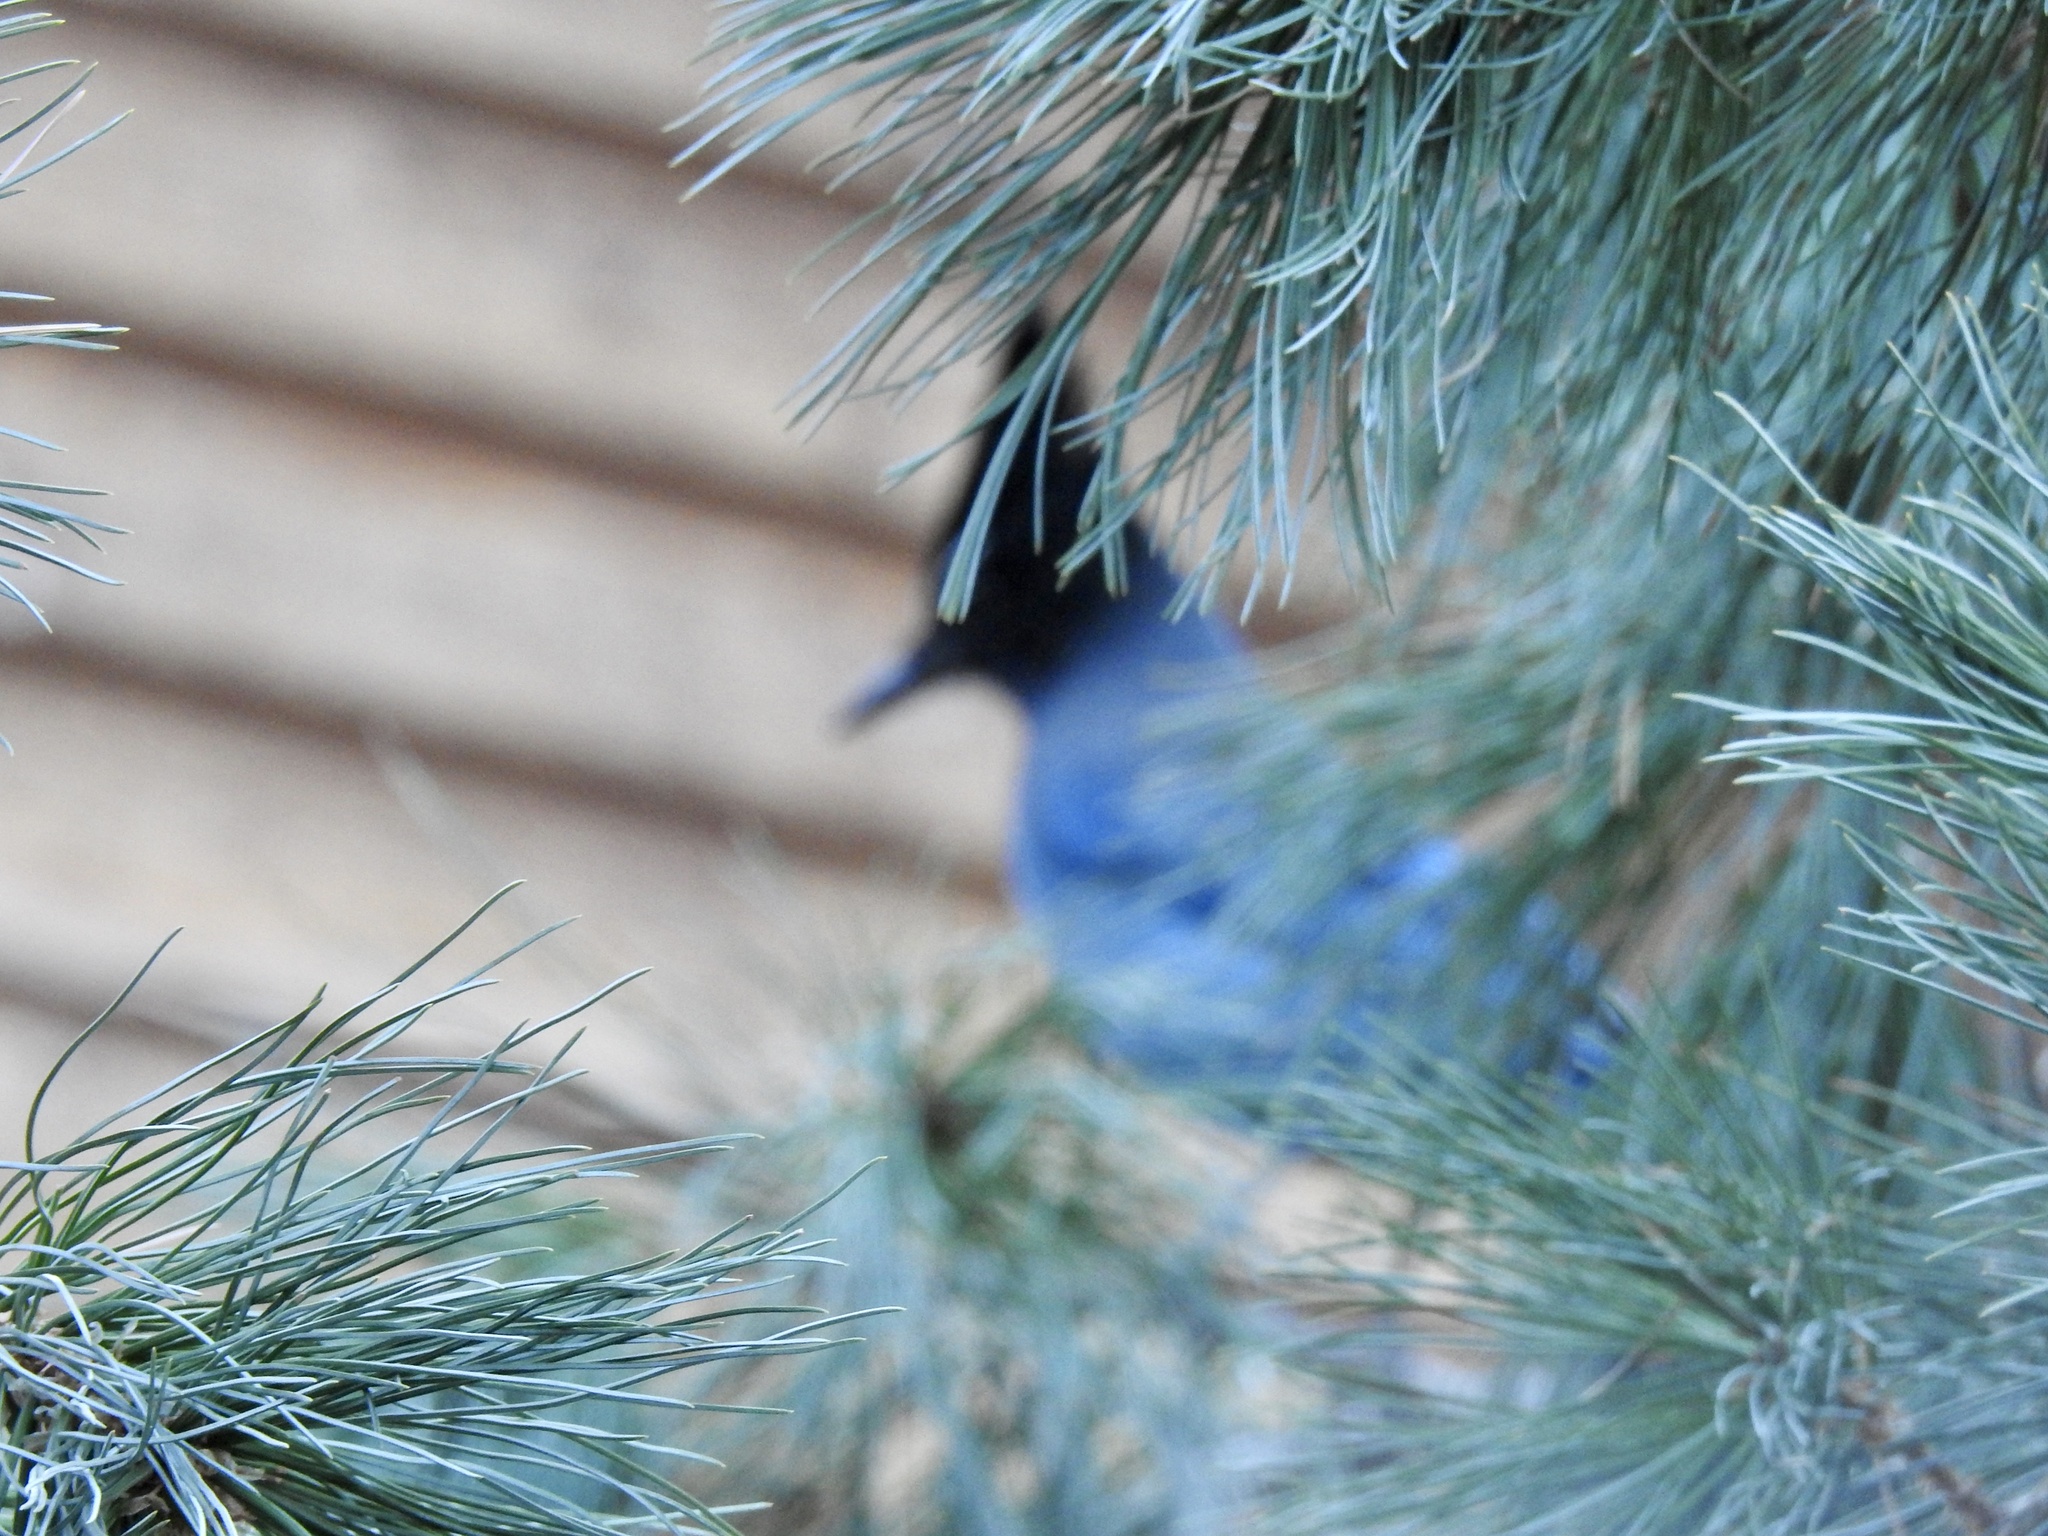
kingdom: Animalia
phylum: Chordata
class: Aves
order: Passeriformes
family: Corvidae
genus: Cyanocitta
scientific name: Cyanocitta stelleri
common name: Steller's jay
